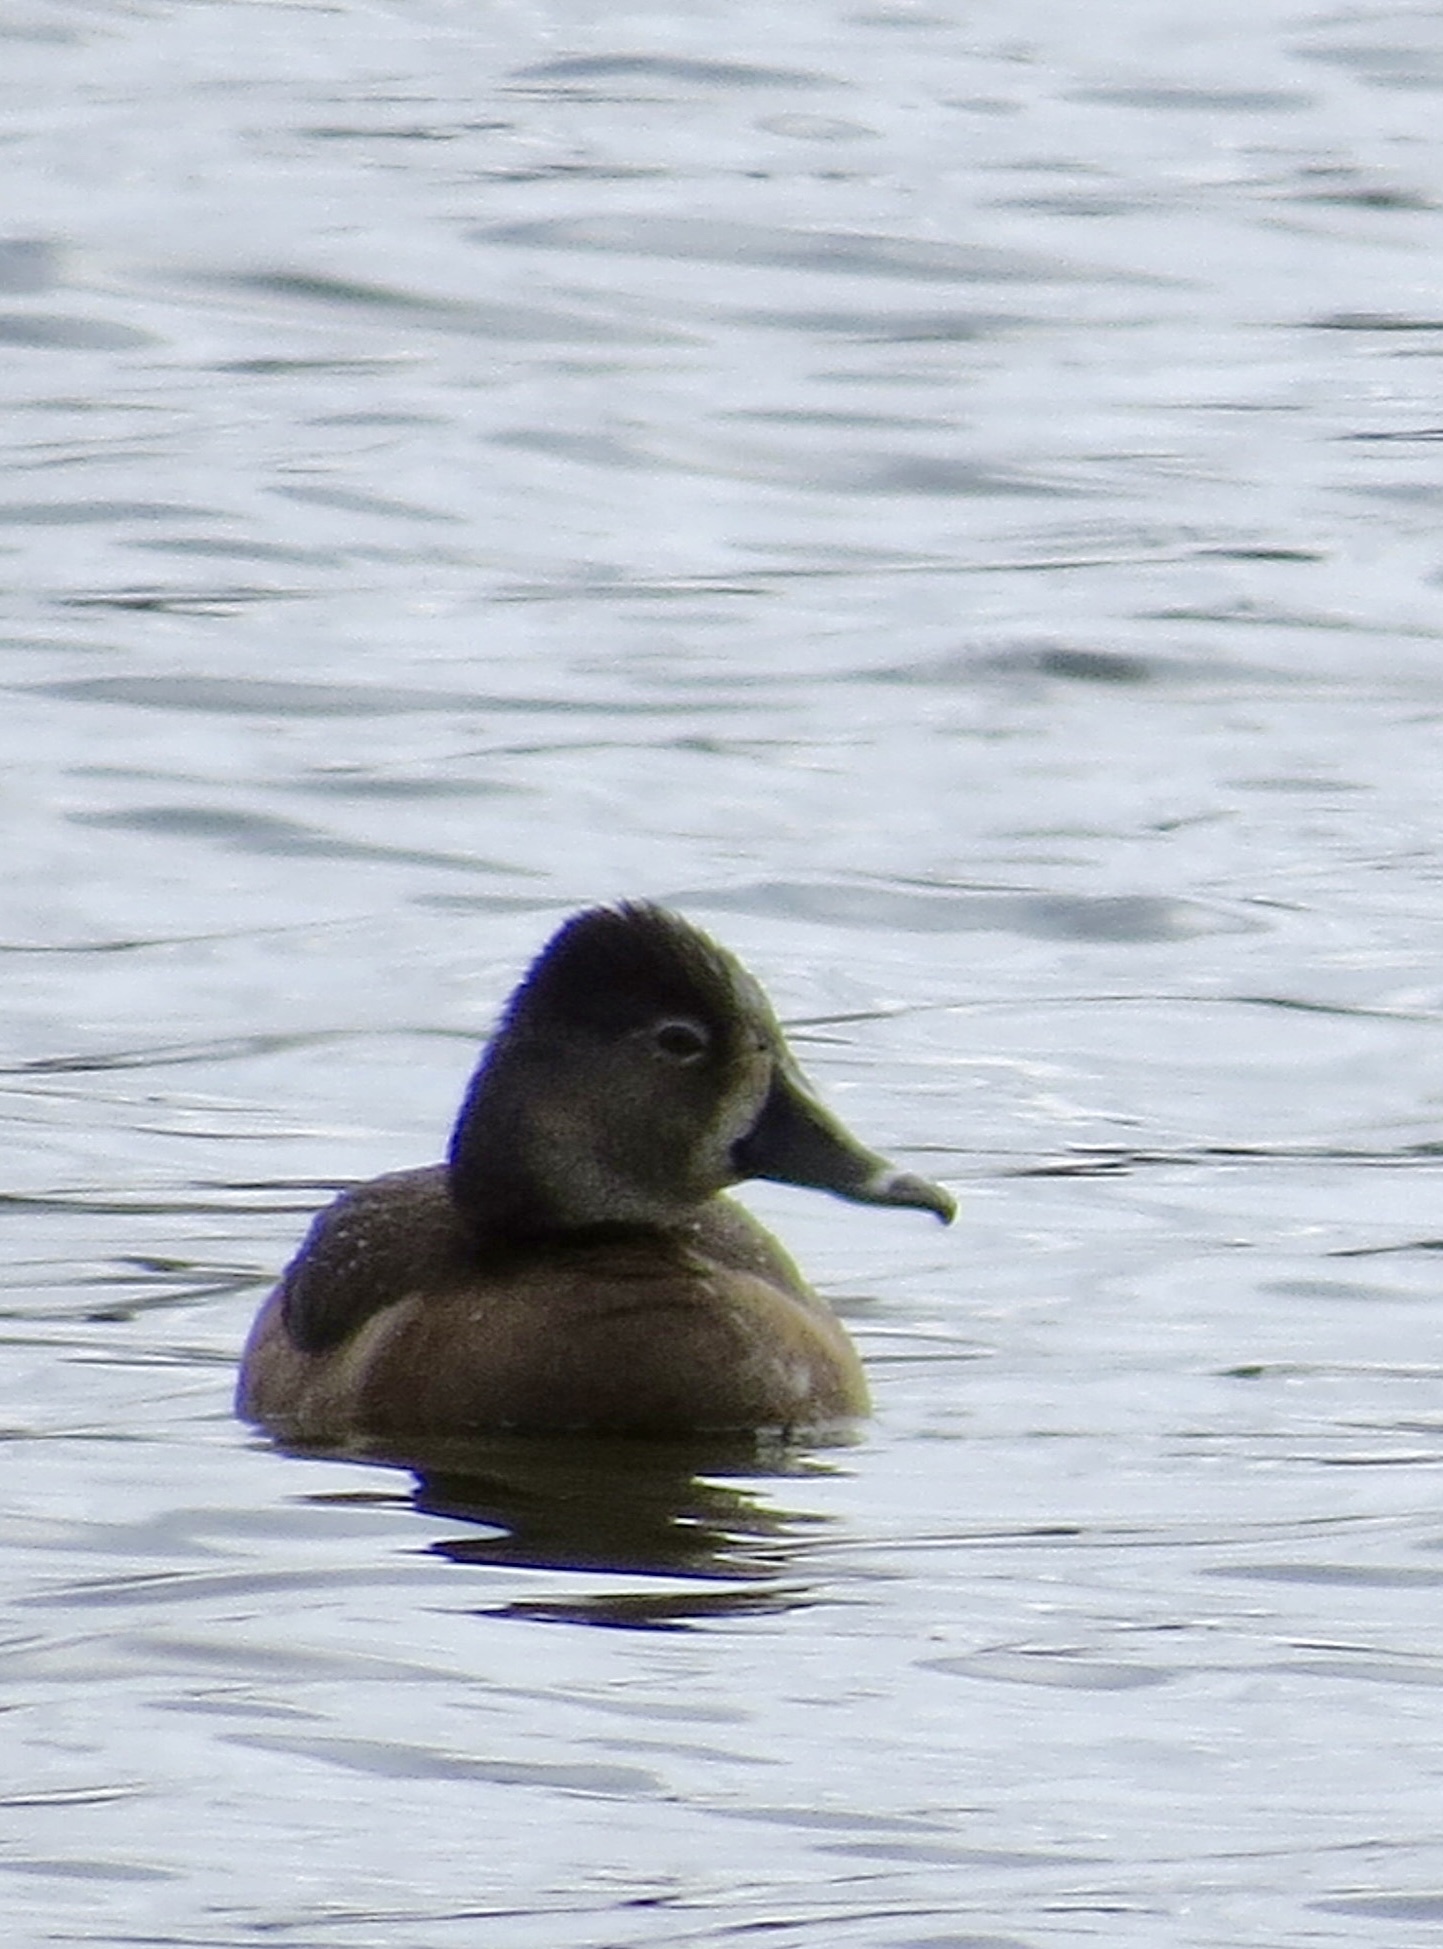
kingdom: Animalia
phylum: Chordata
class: Aves
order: Anseriformes
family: Anatidae
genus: Aythya
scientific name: Aythya collaris
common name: Ring-necked duck
